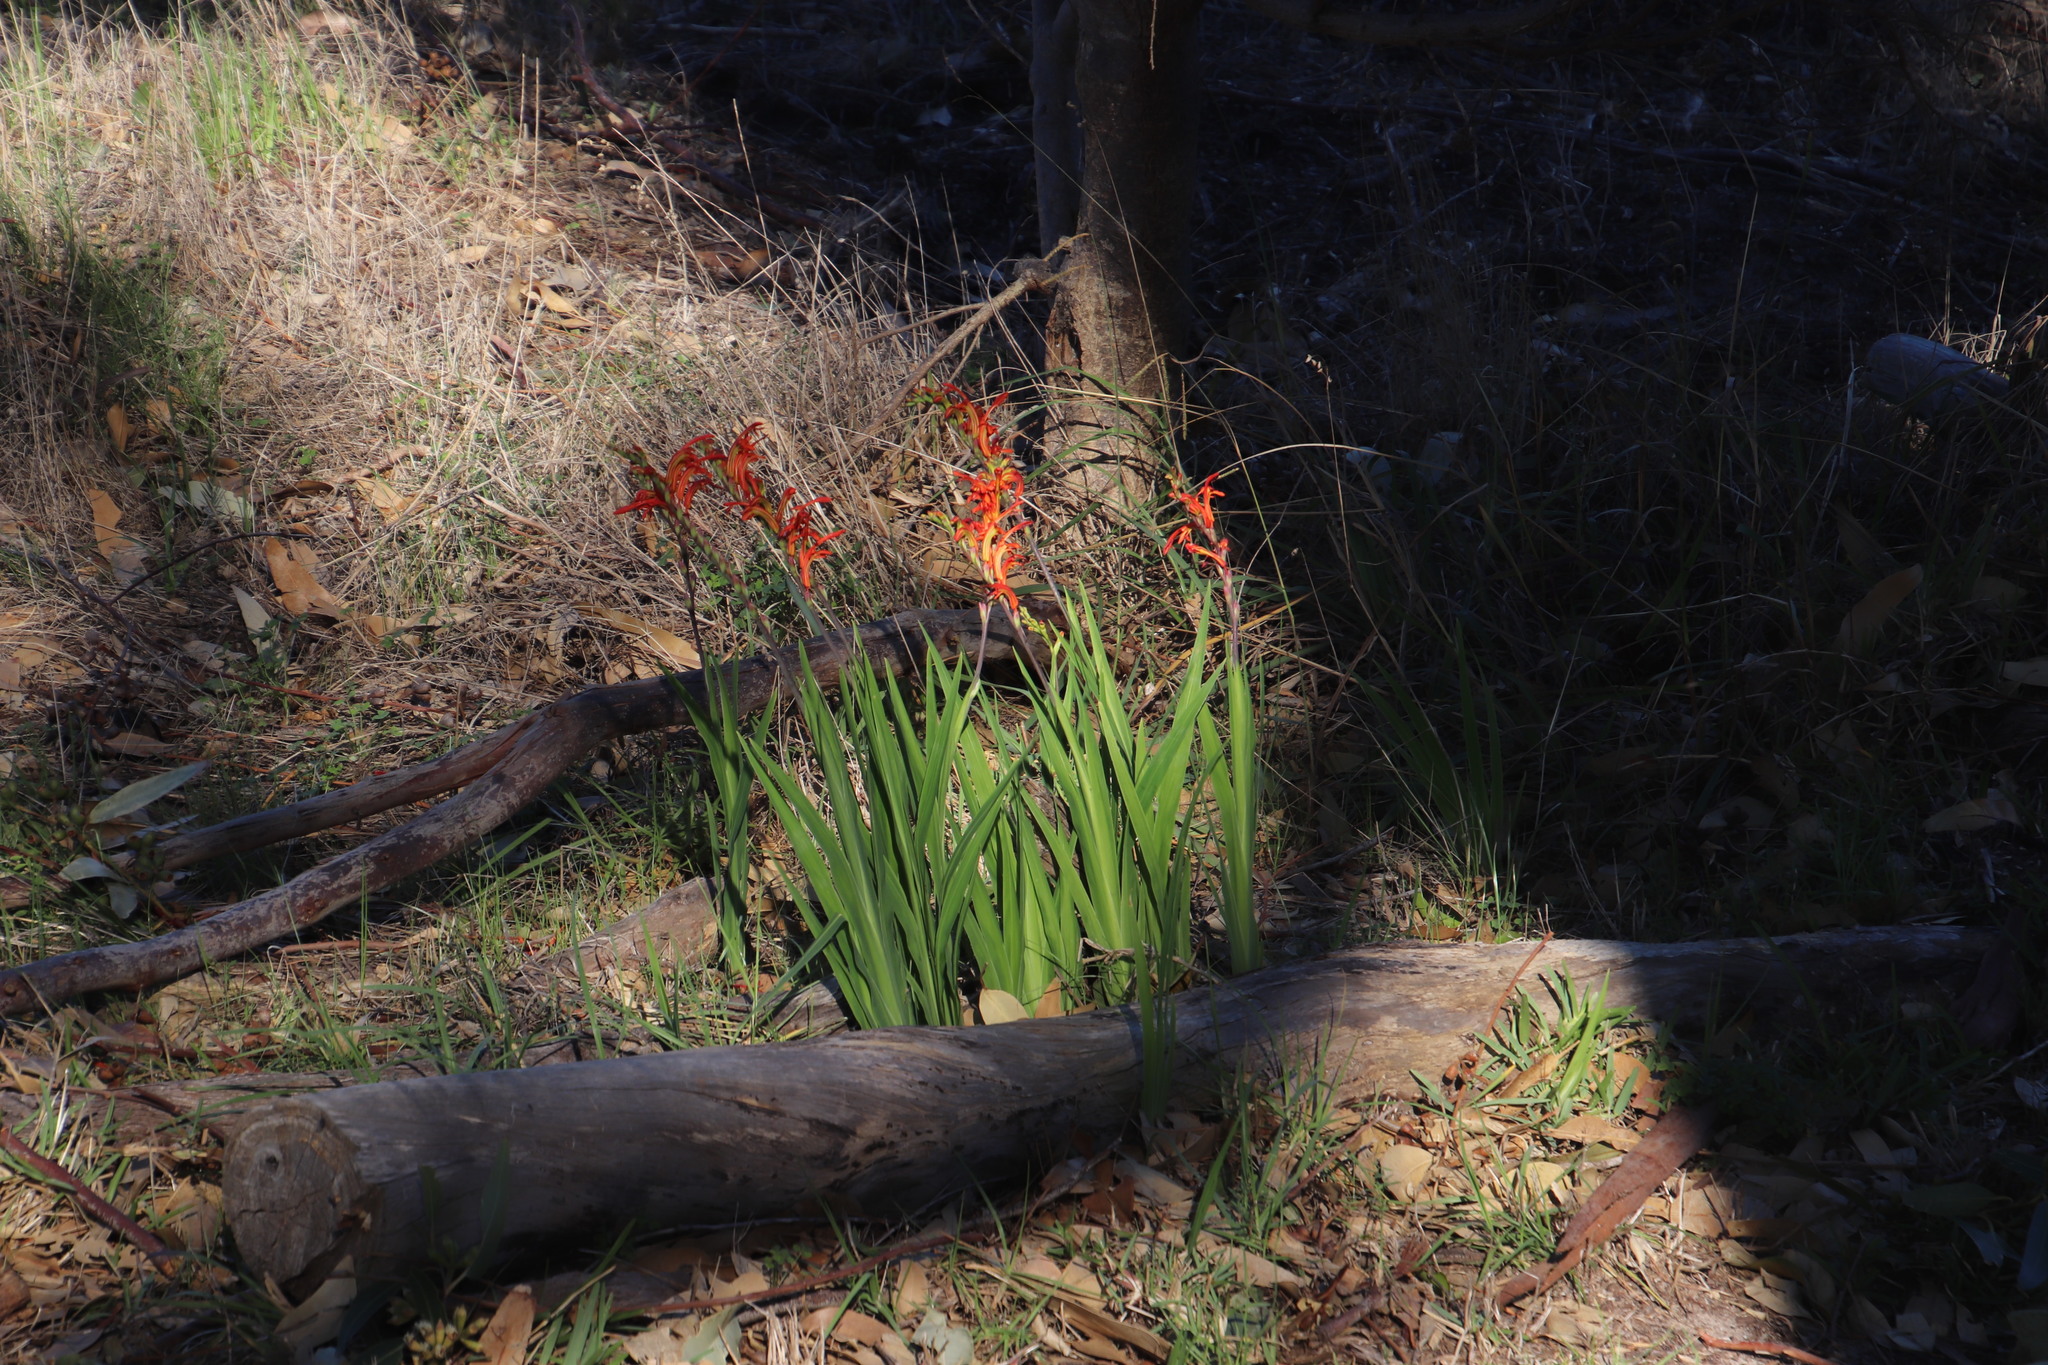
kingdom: Plantae
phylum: Tracheophyta
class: Liliopsida
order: Asparagales
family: Iridaceae
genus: Chasmanthe
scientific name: Chasmanthe aethiopica
